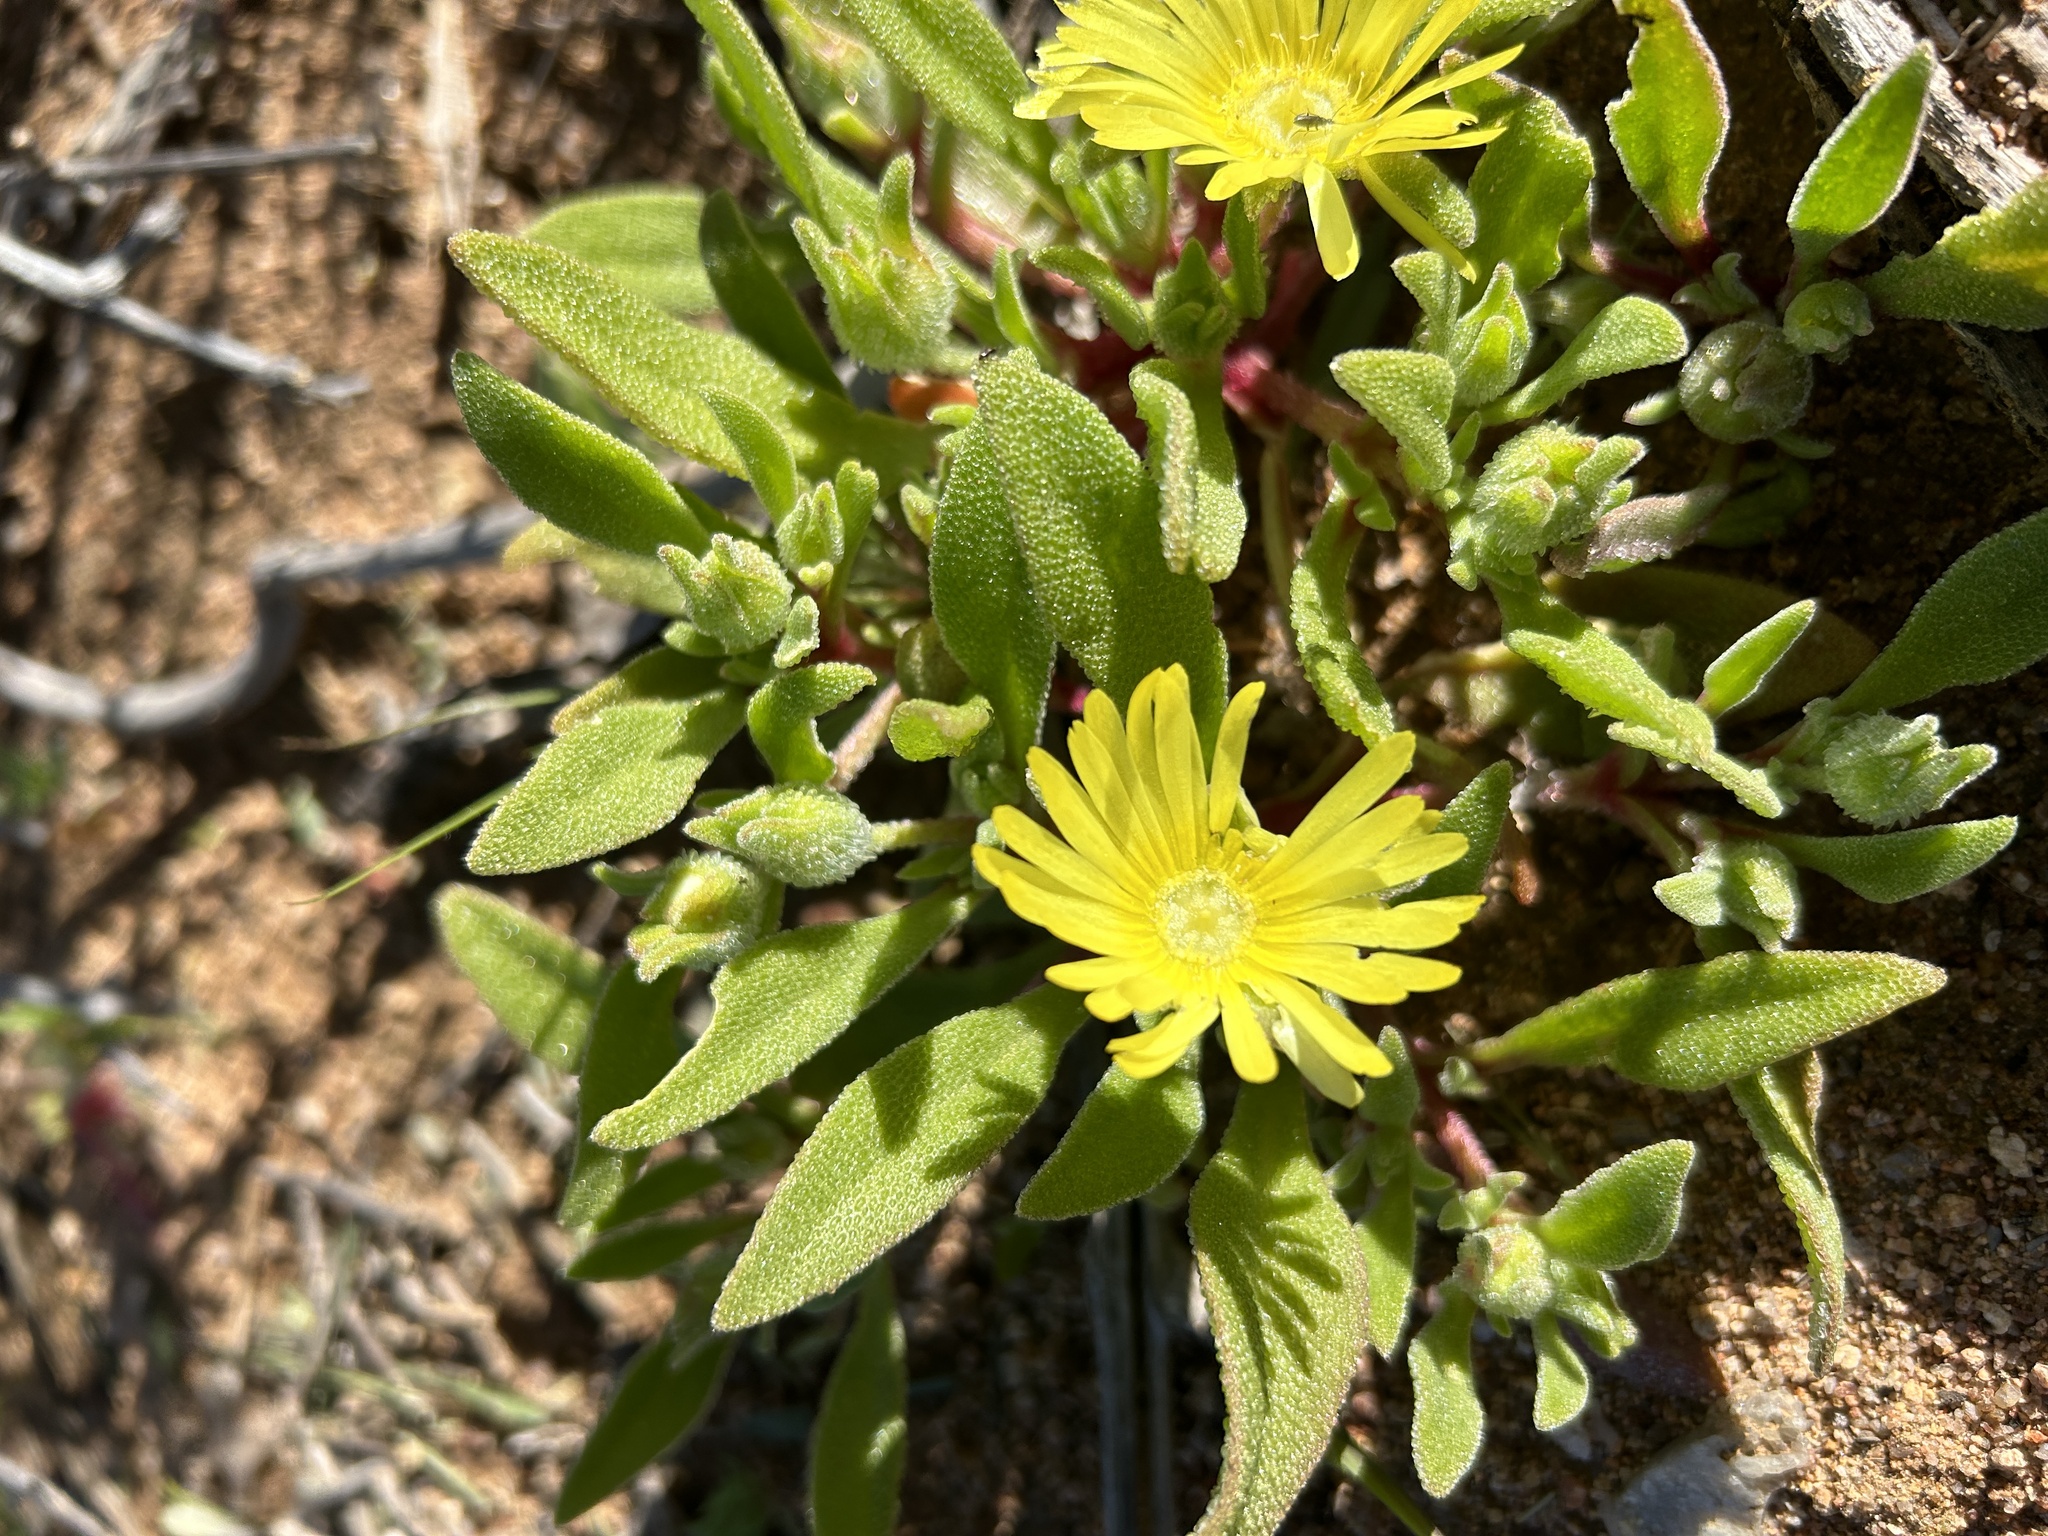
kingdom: Plantae
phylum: Tracheophyta
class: Magnoliopsida
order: Caryophyllales
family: Aizoaceae
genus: Cleretum
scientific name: Cleretum papulosum
